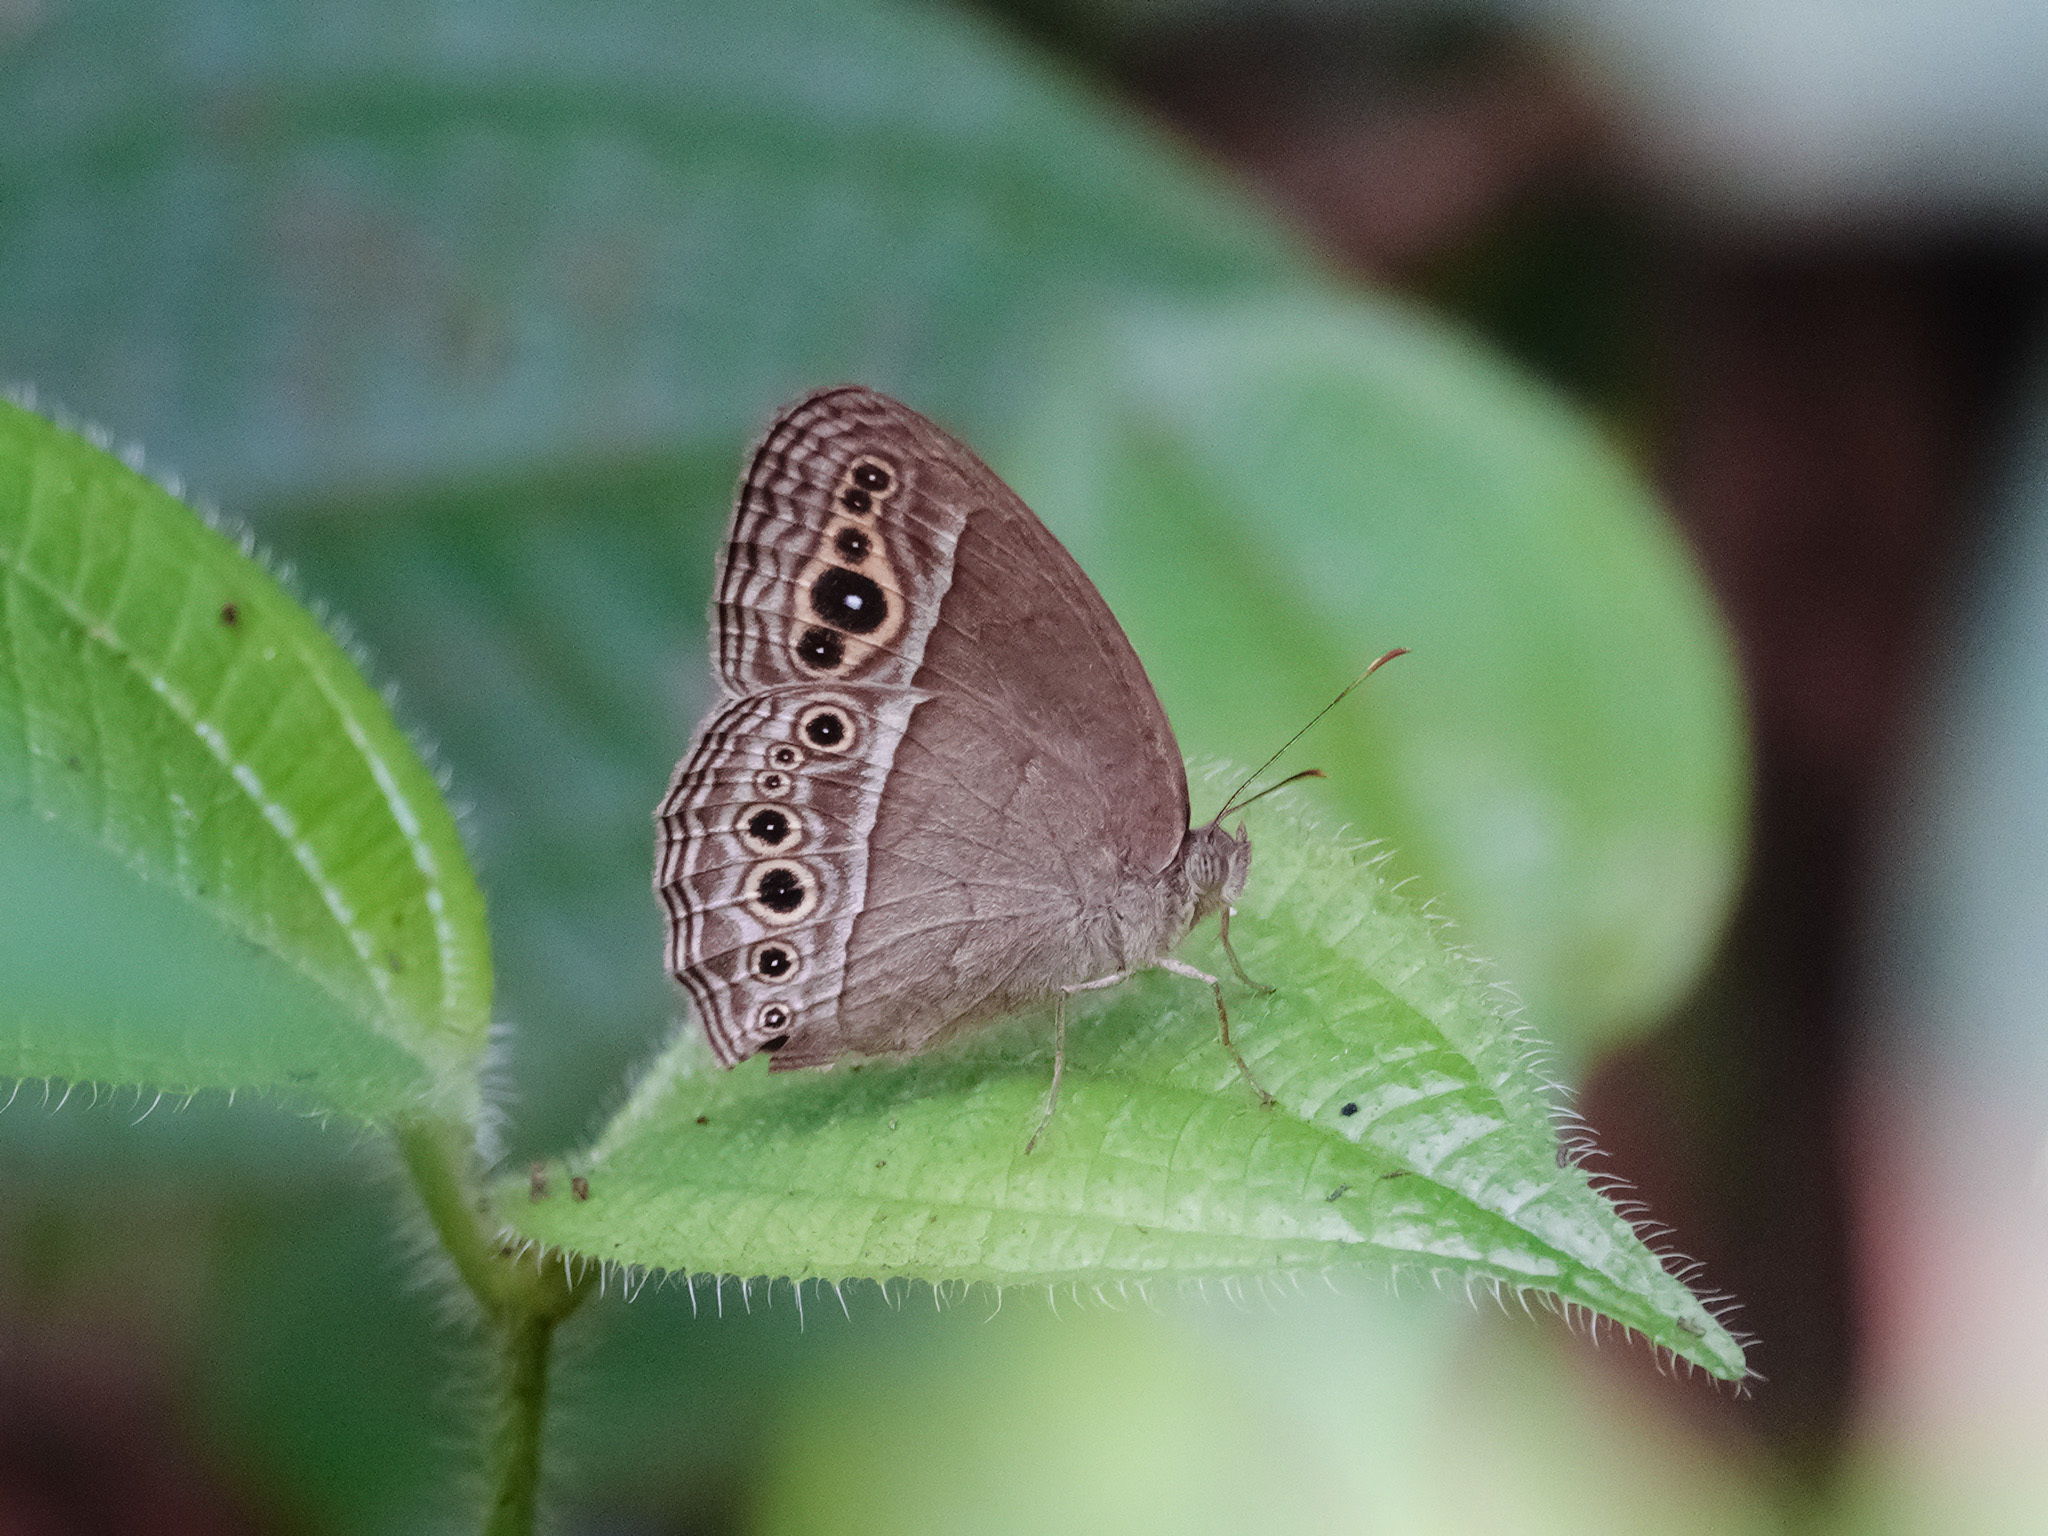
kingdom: Animalia
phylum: Arthropoda
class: Insecta
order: Lepidoptera
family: Nymphalidae
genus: Mycalesis
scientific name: Mycalesis perseoides
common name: Burmese bushbrown
